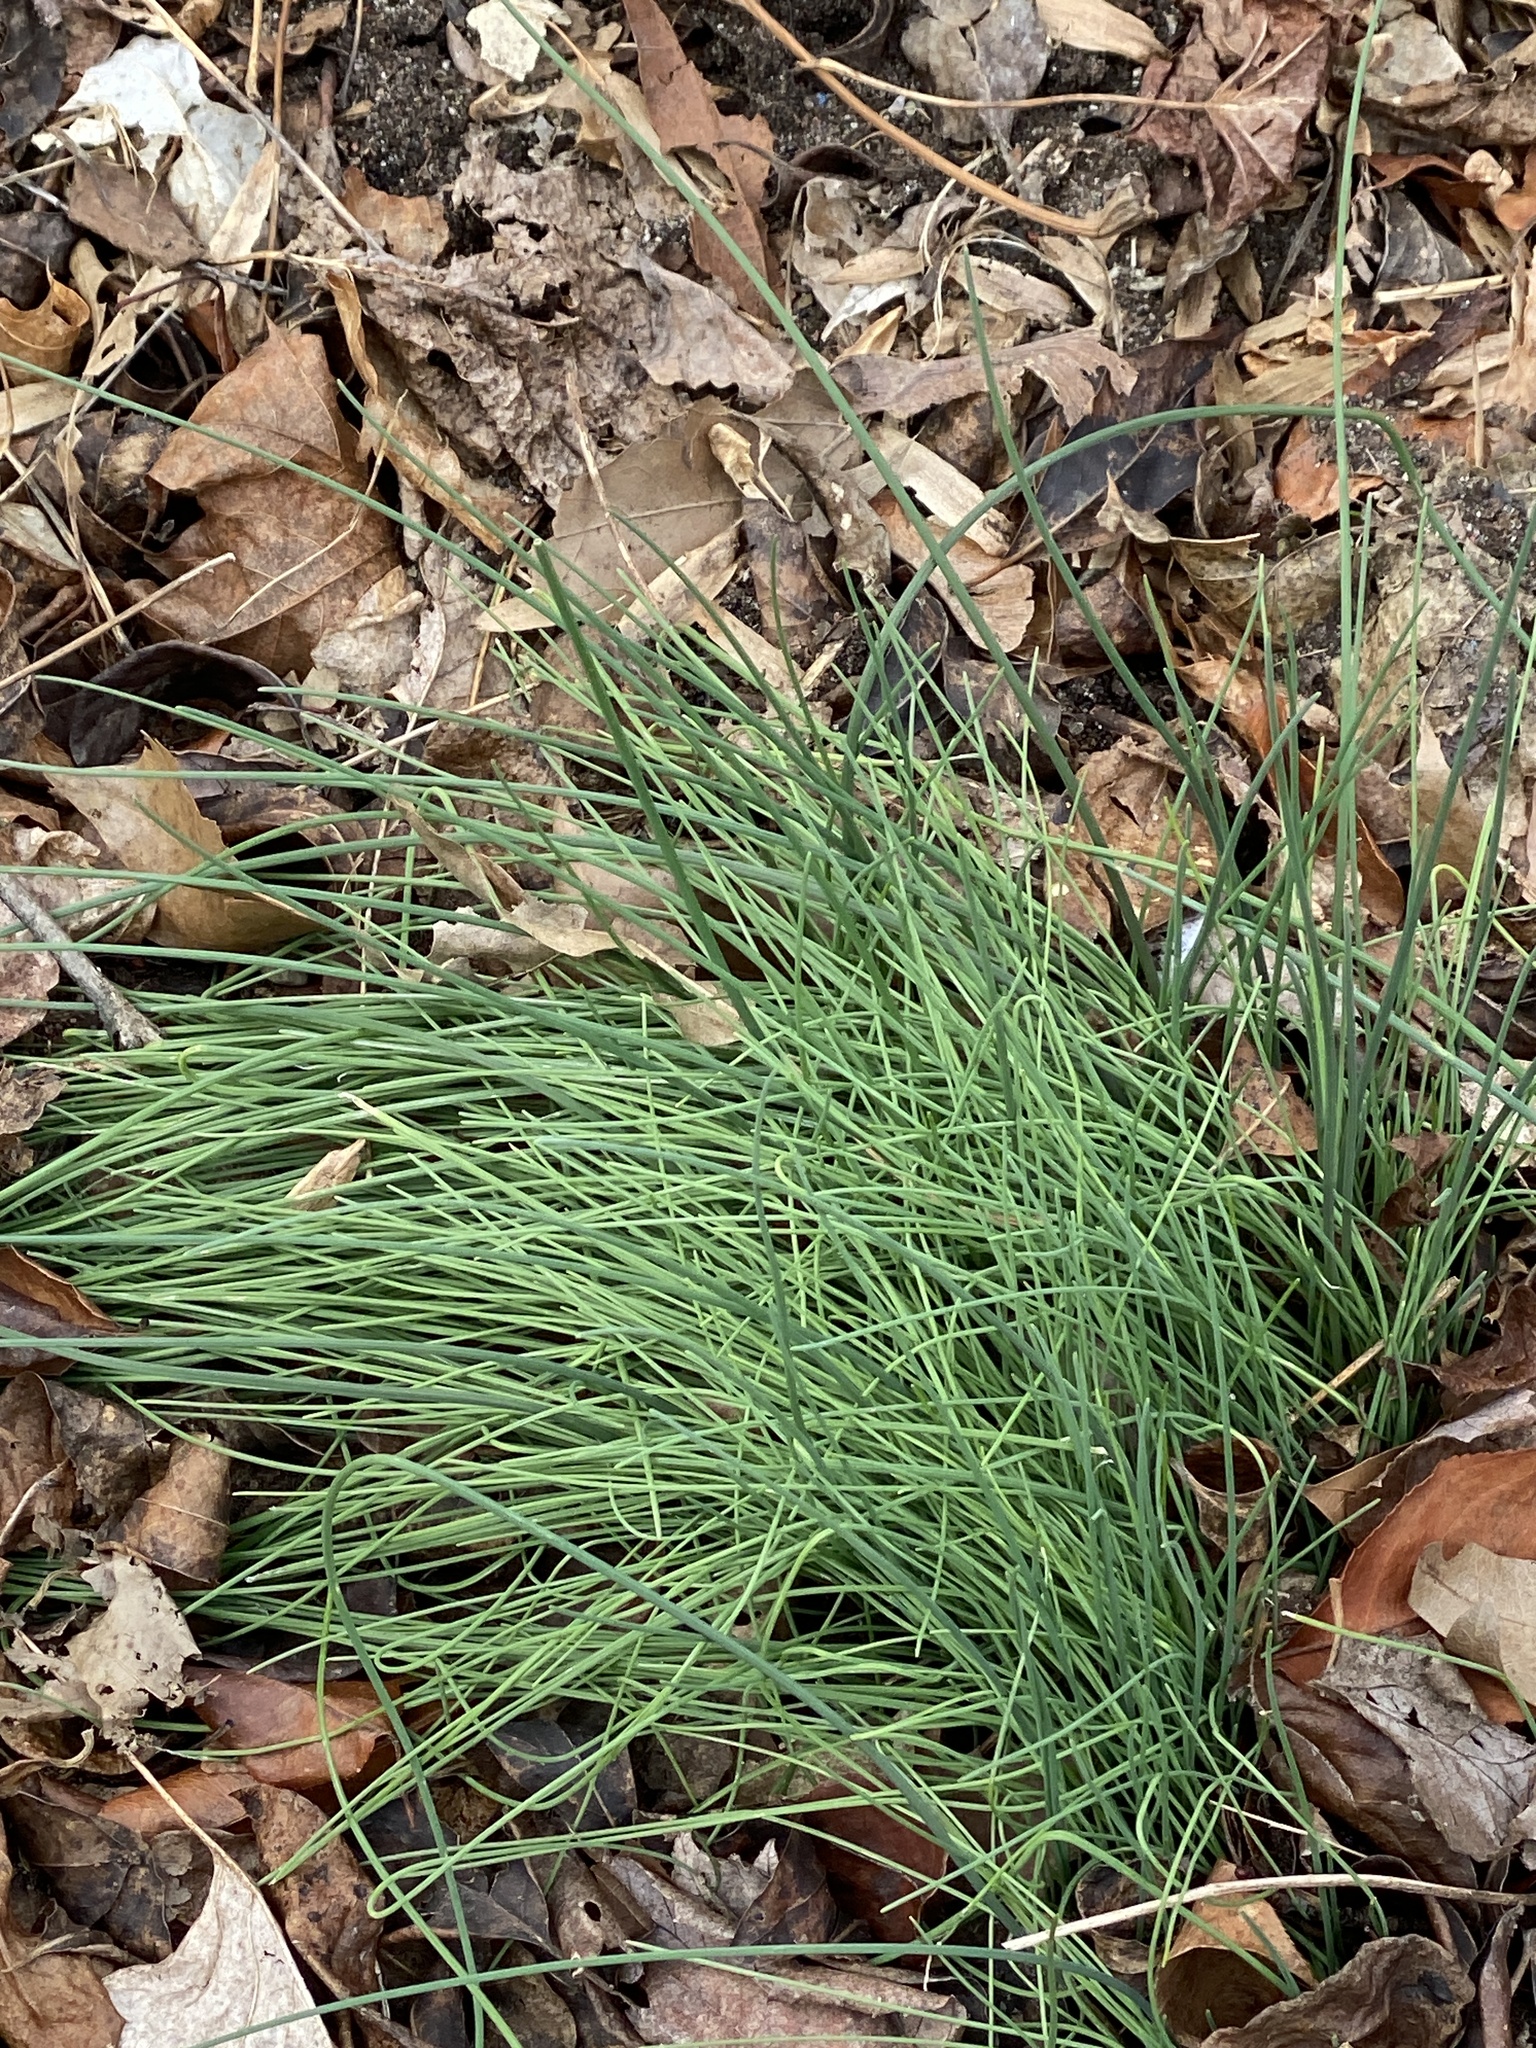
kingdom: Plantae
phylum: Tracheophyta
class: Liliopsida
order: Asparagales
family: Amaryllidaceae
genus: Allium
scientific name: Allium vineale
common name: Crow garlic
